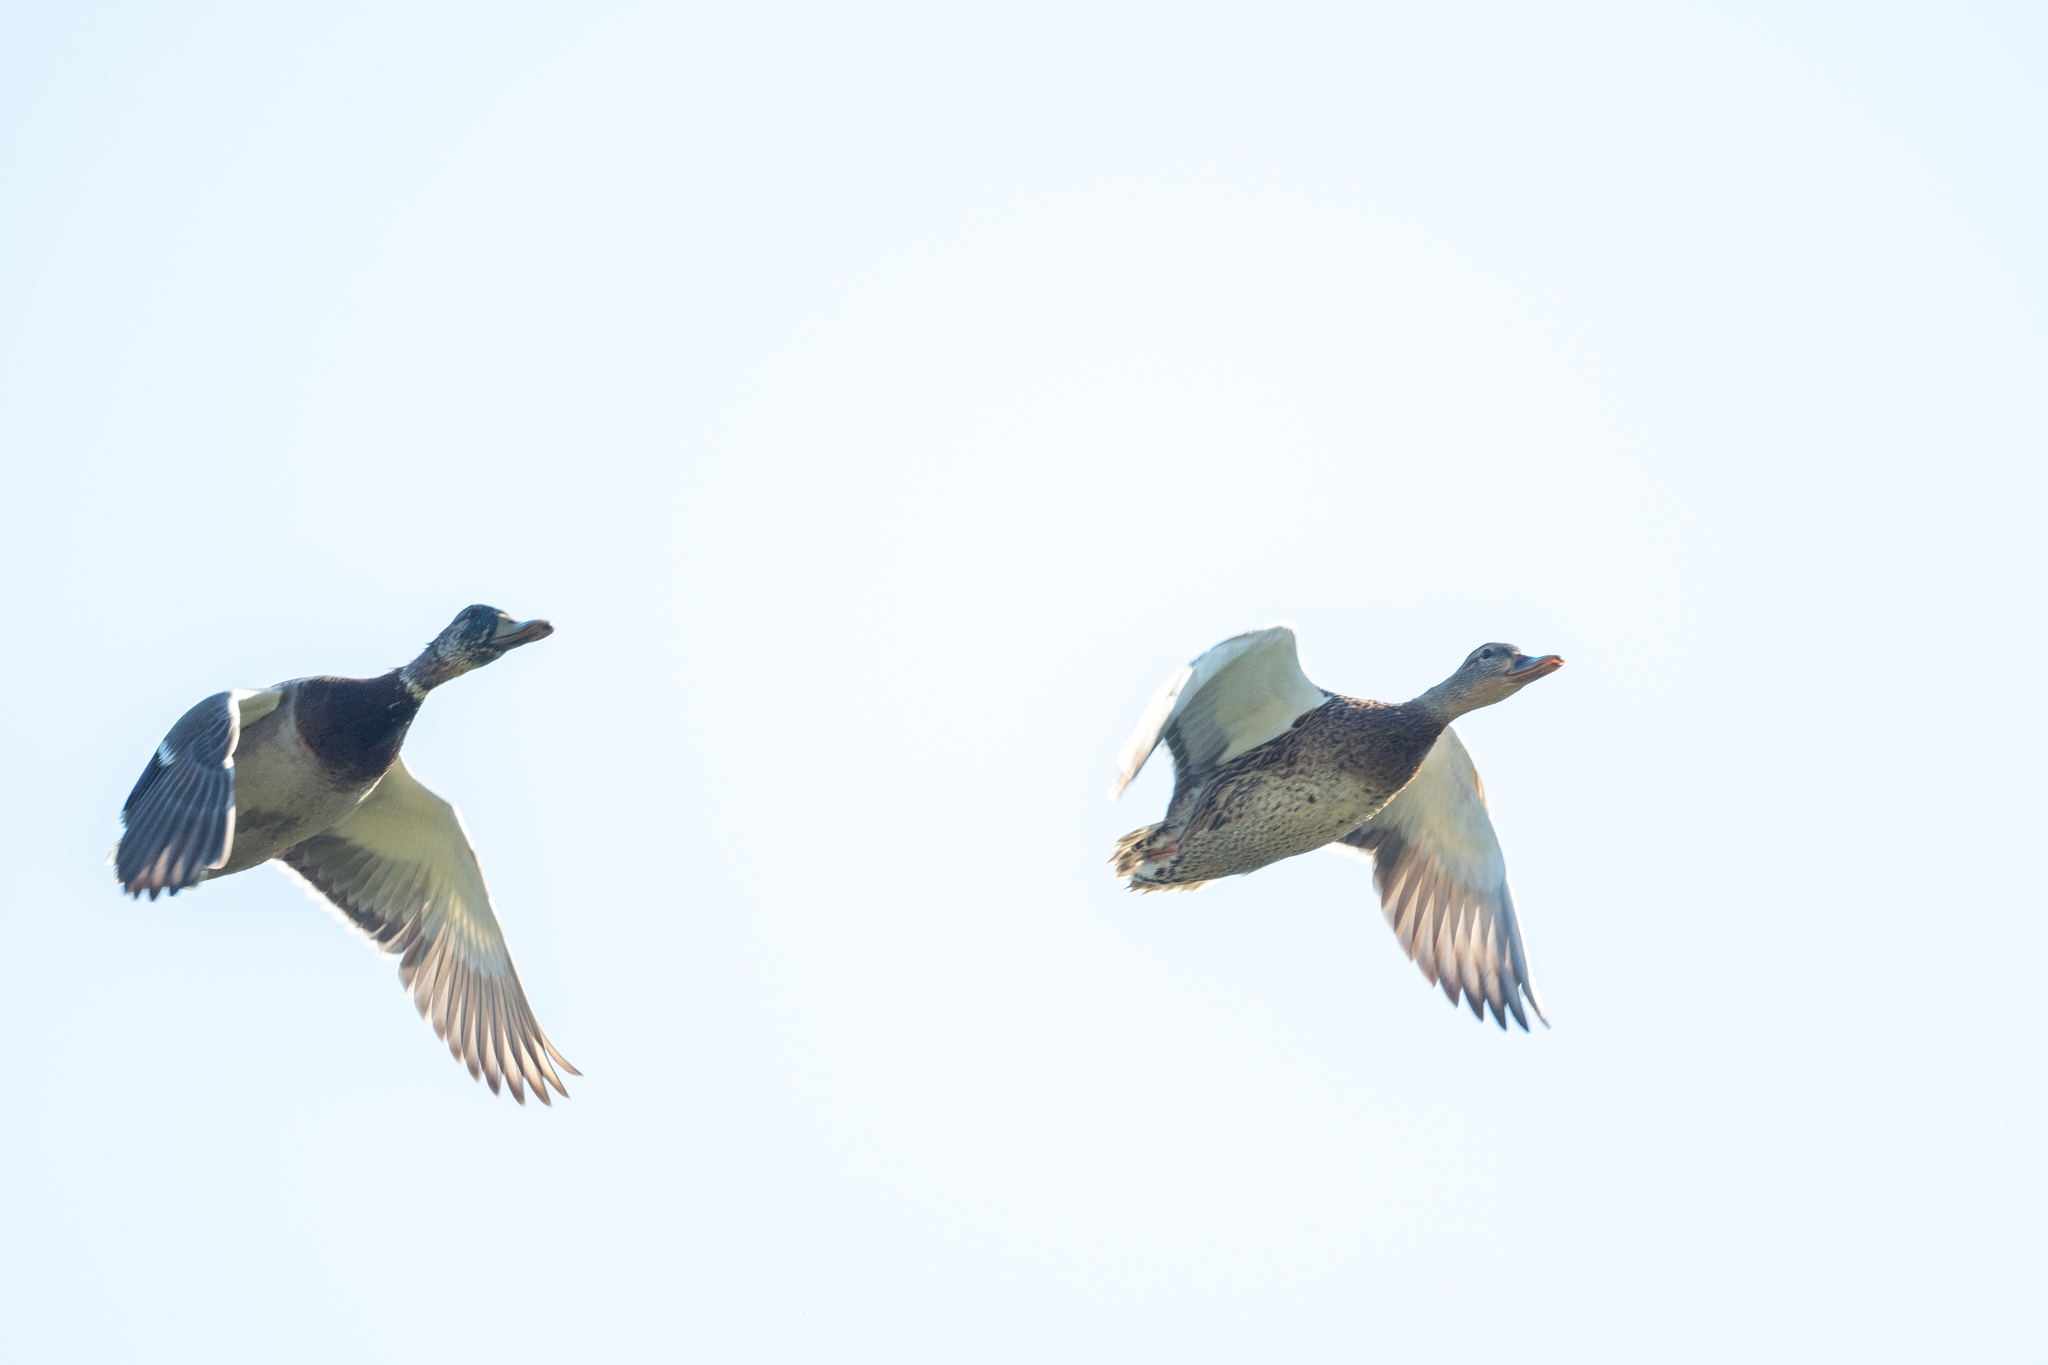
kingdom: Animalia
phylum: Chordata
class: Aves
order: Anseriformes
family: Anatidae
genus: Anas
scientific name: Anas platyrhynchos
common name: Mallard
